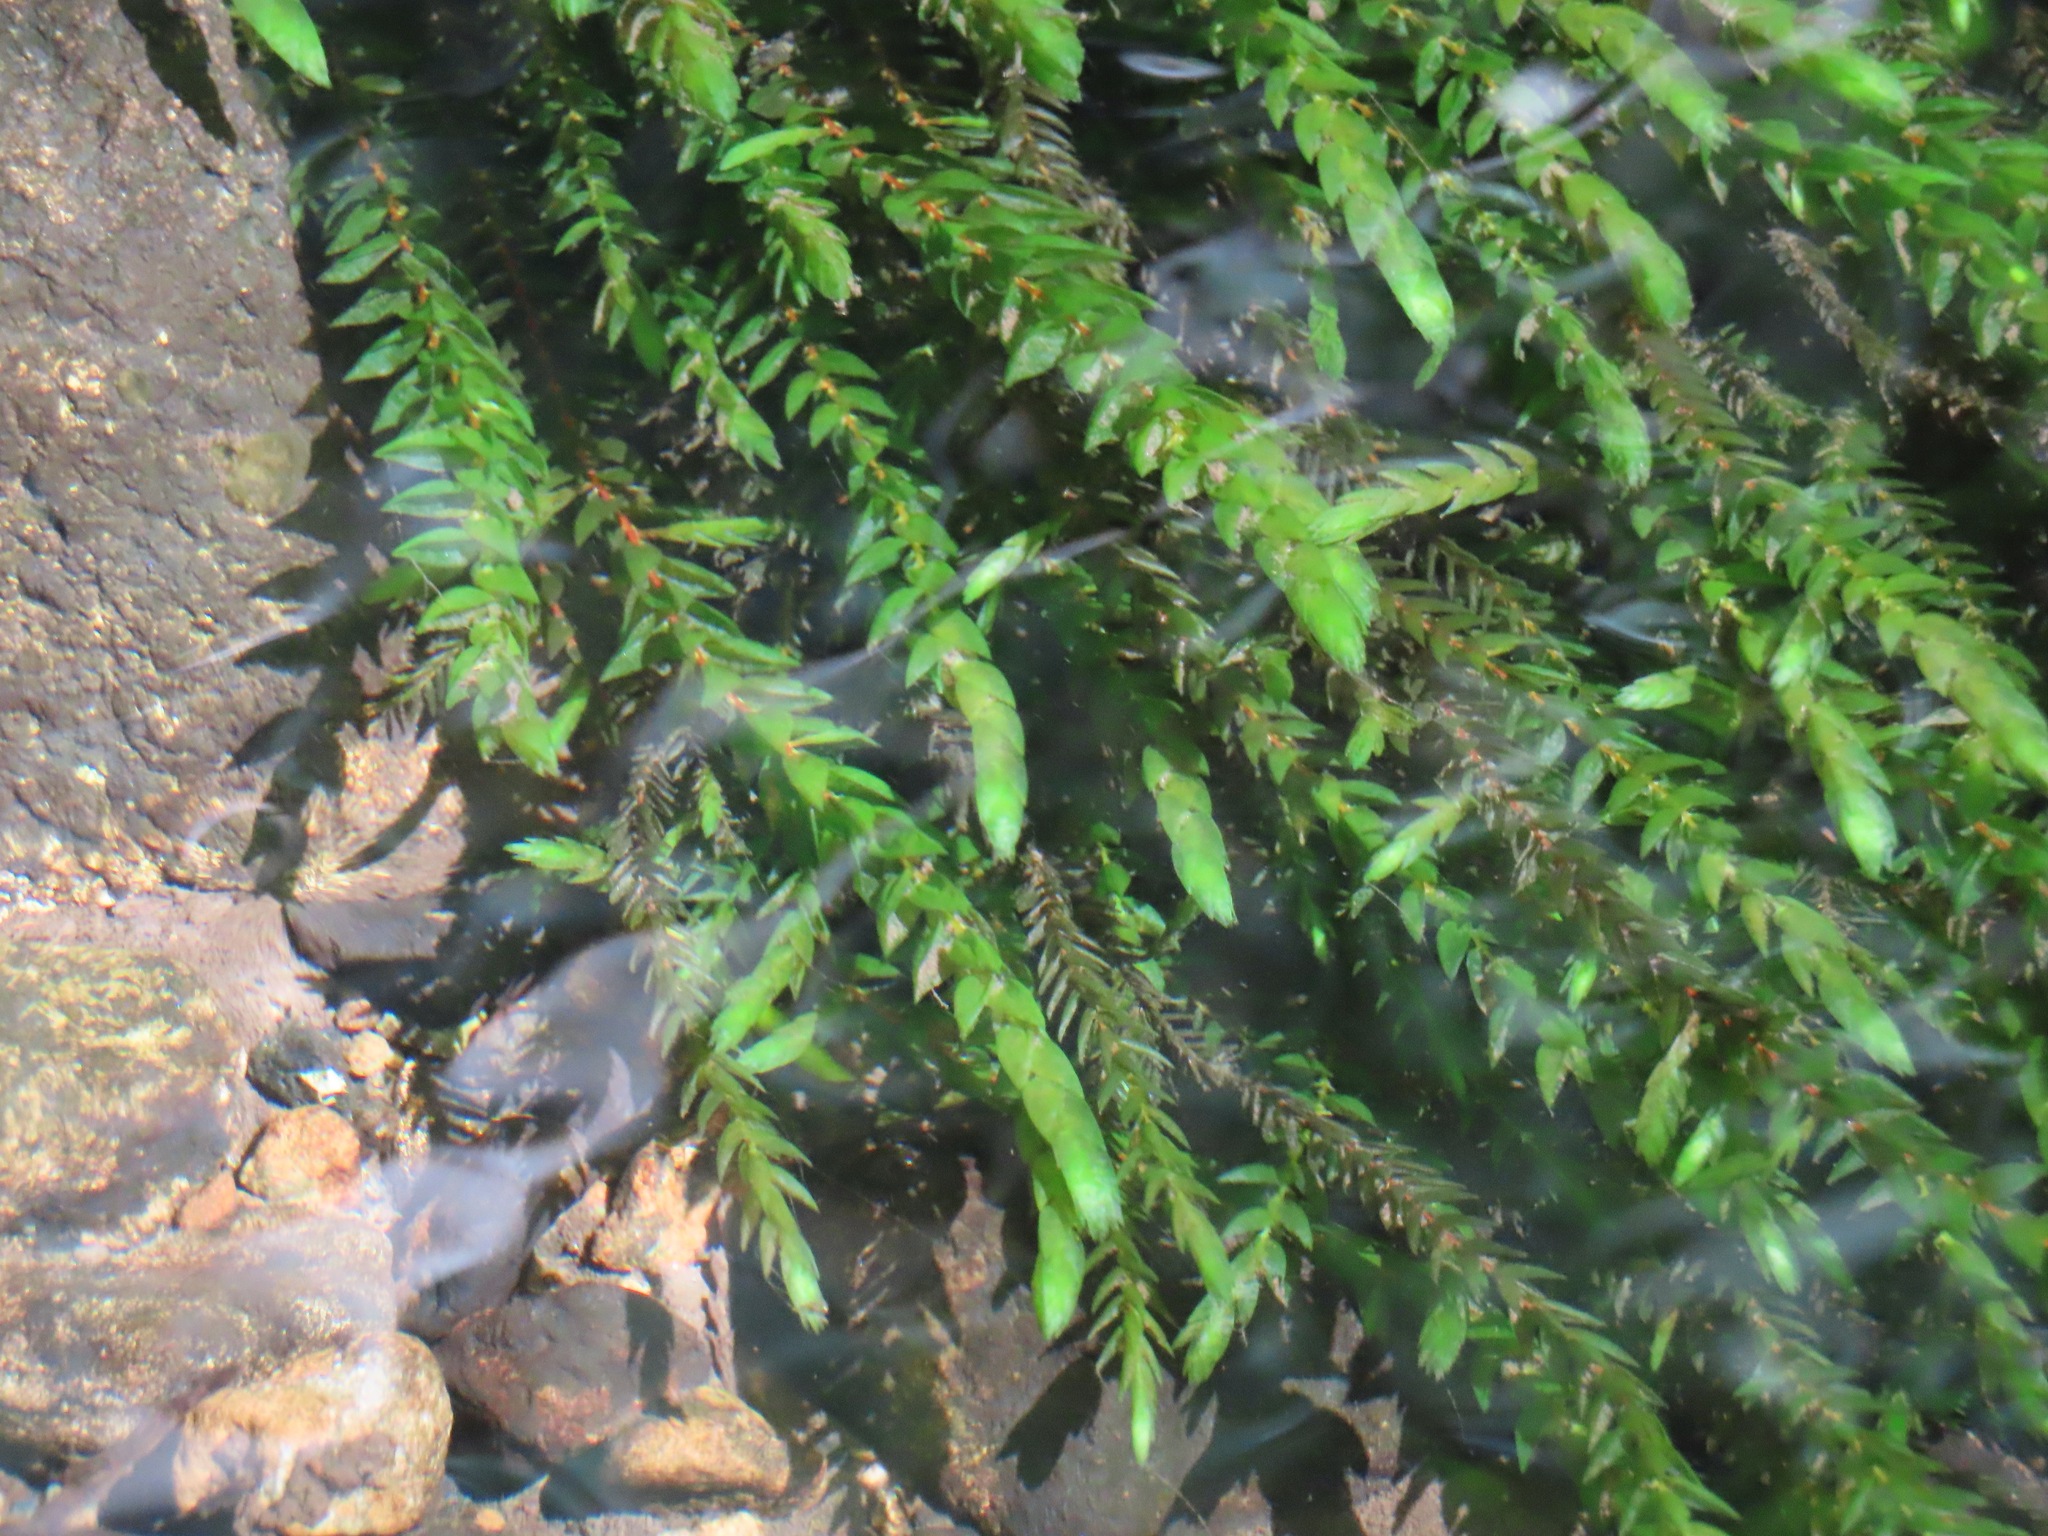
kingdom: Plantae
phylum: Bryophyta
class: Bryopsida
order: Hypnales
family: Fontinalaceae
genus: Fontinalis
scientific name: Fontinalis antipyretica
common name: Greater water-moss
